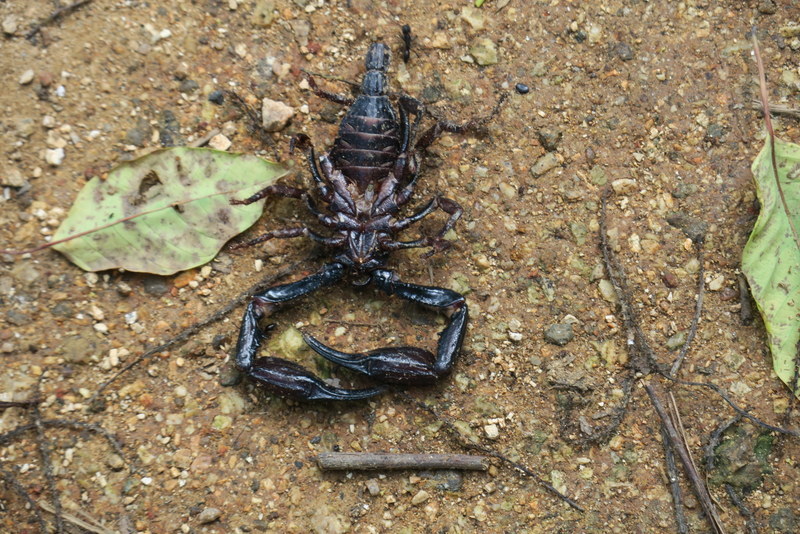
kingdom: Animalia
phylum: Arthropoda
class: Arachnida
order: Scorpiones
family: Scorpionidae
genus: Heterometrus
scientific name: Heterometrus laevigatus
